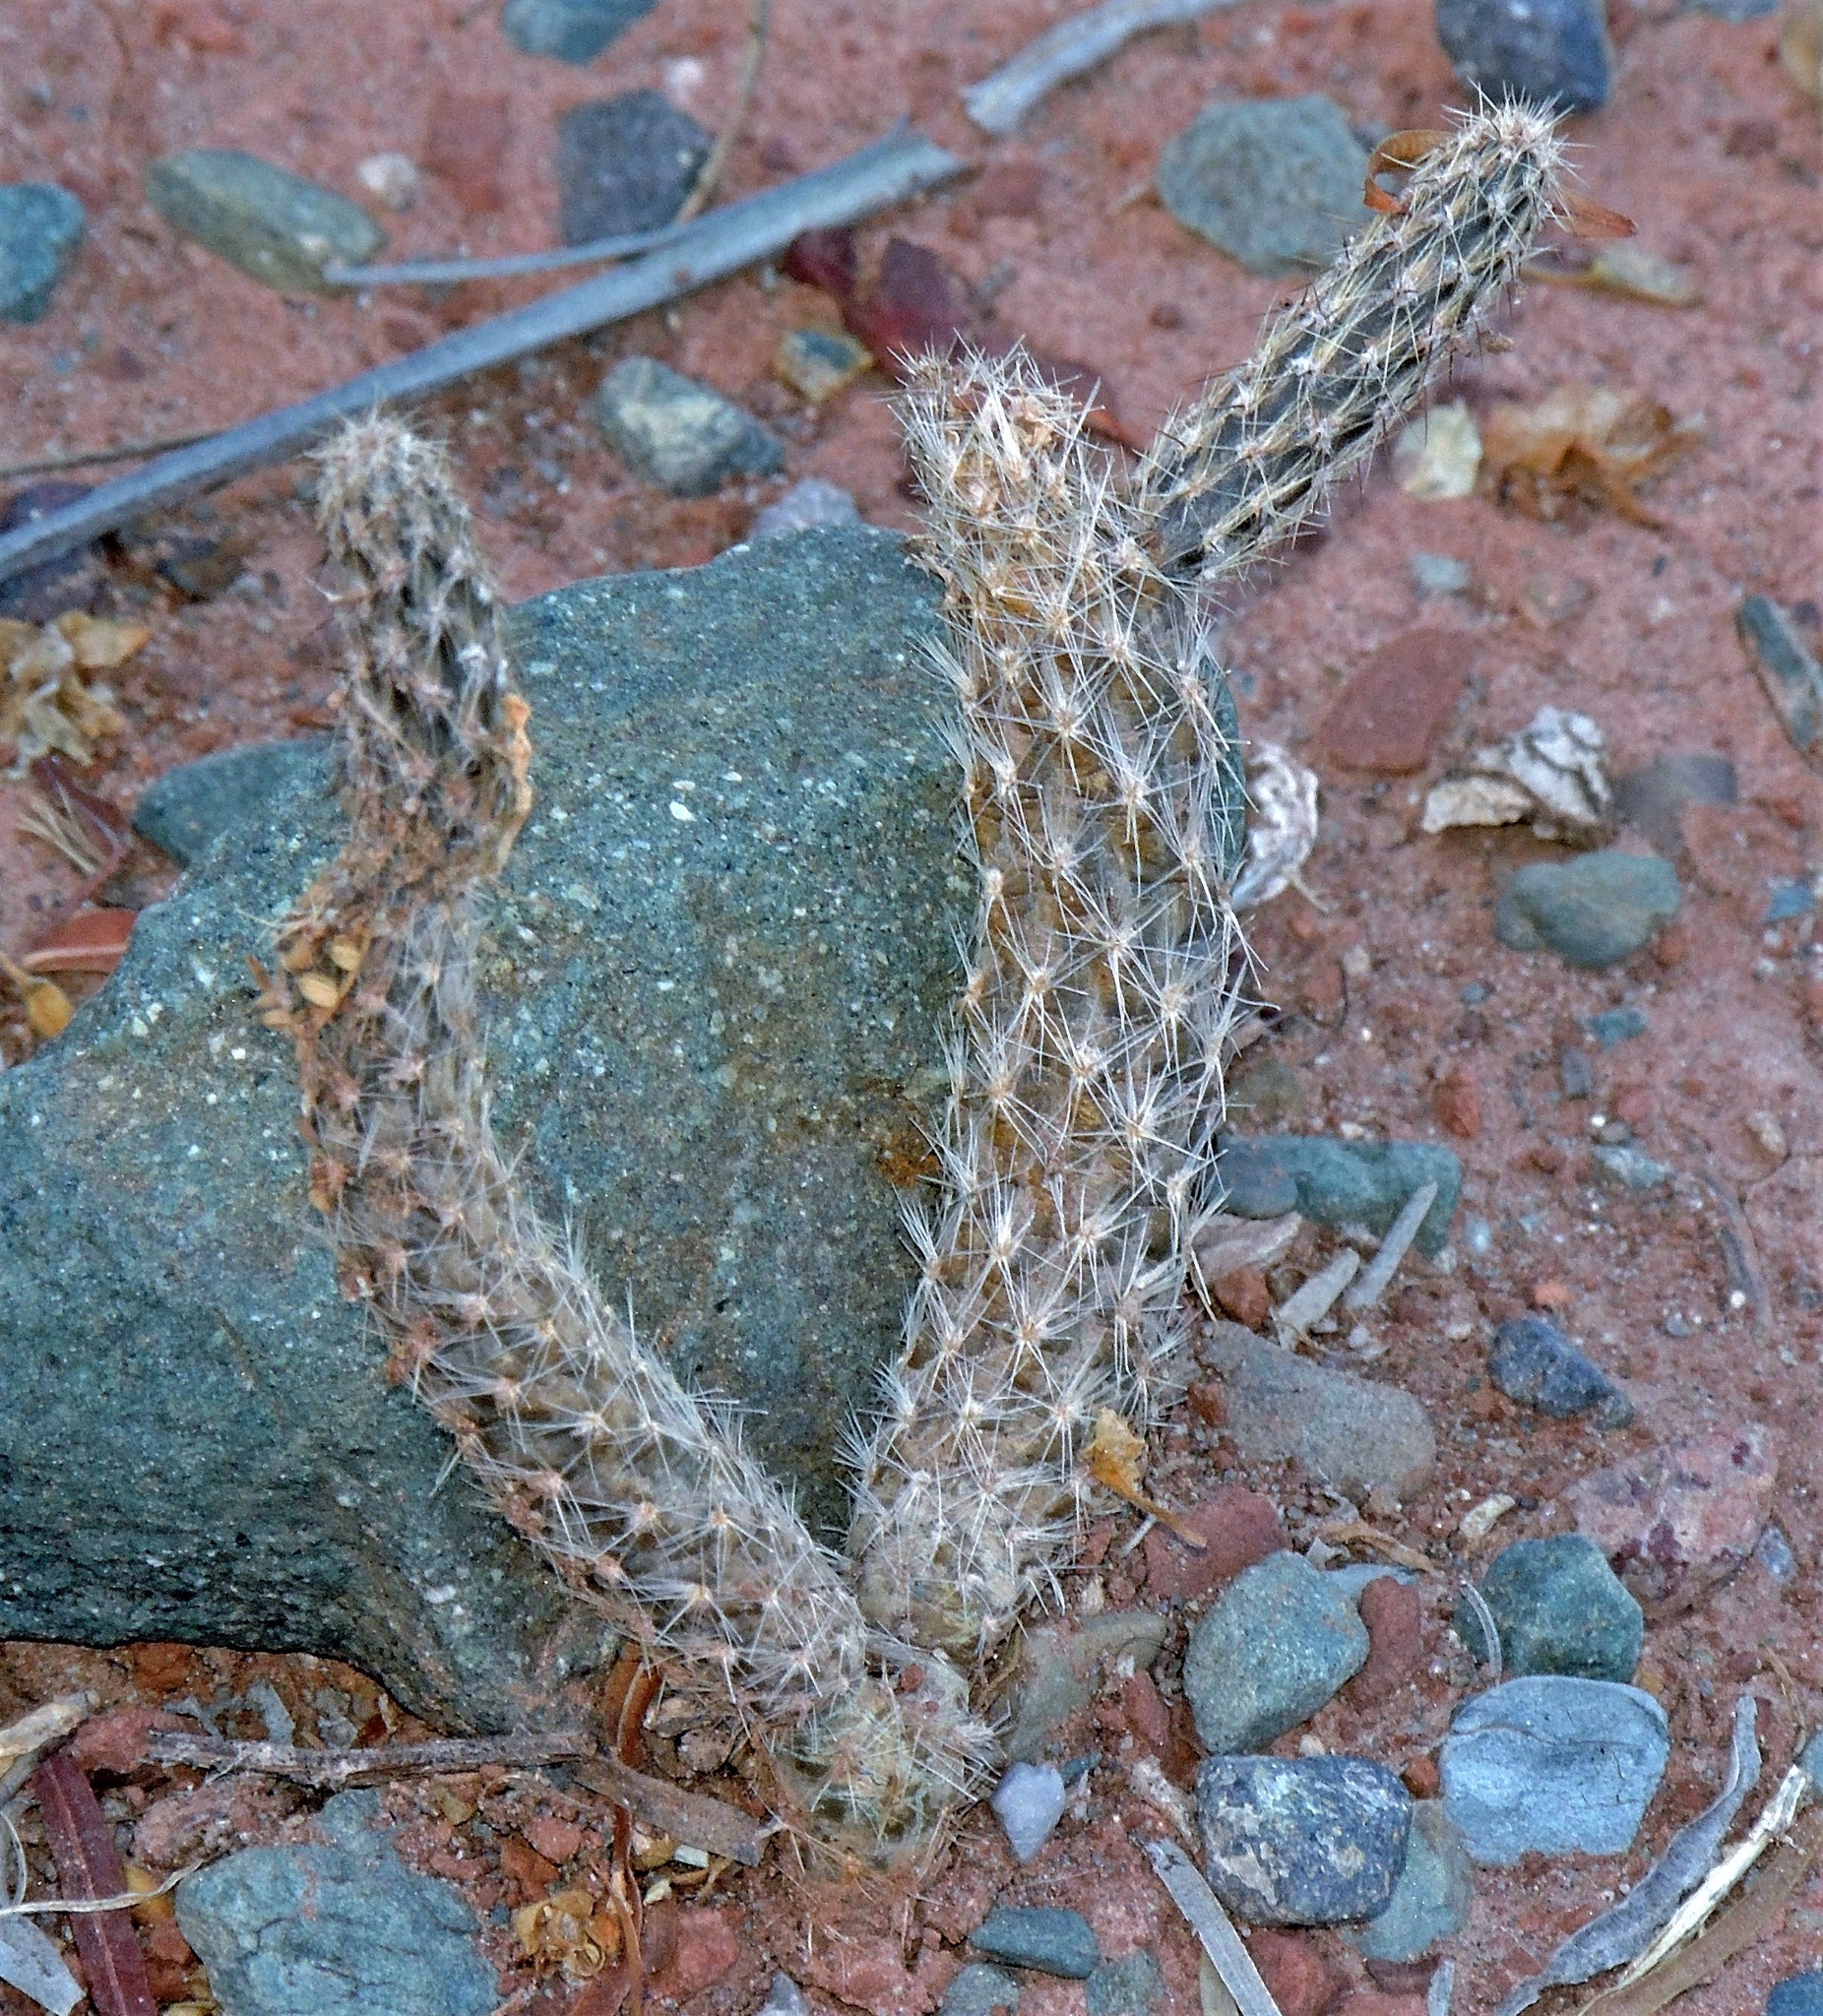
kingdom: Plantae
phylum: Tracheophyta
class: Magnoliopsida
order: Caryophyllales
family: Cactaceae
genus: Pterocactus
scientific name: Pterocactus tuberosus
